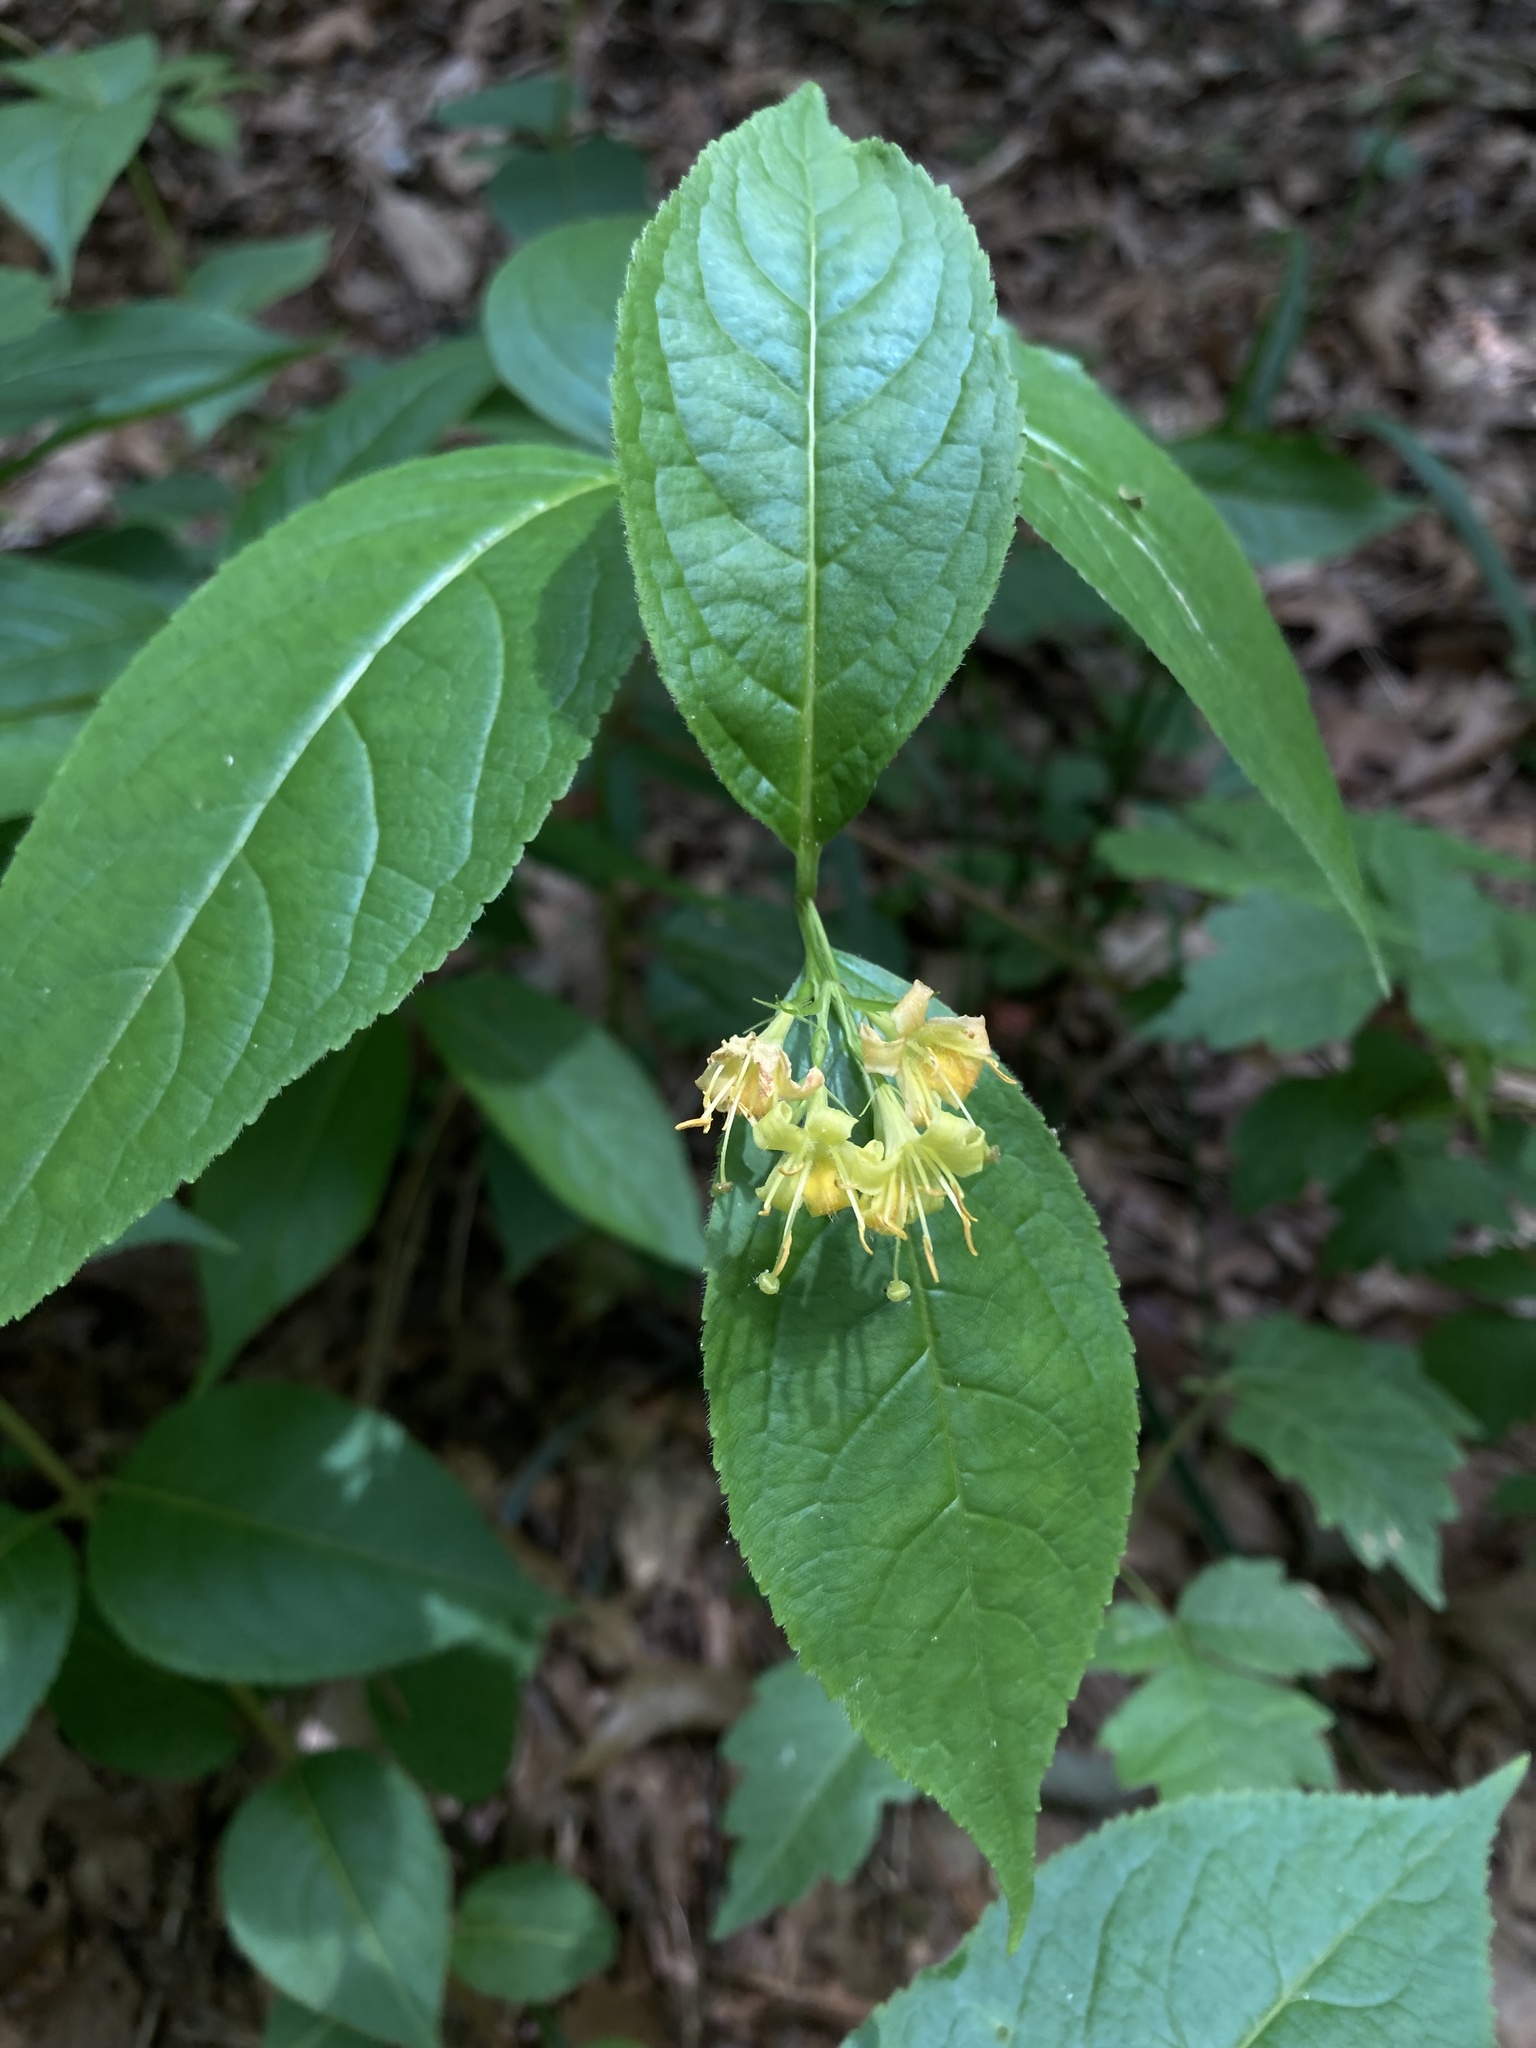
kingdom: Plantae
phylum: Tracheophyta
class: Magnoliopsida
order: Dipsacales
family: Caprifoliaceae
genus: Diervilla
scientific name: Diervilla lonicera
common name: Bush-honeysuckle
